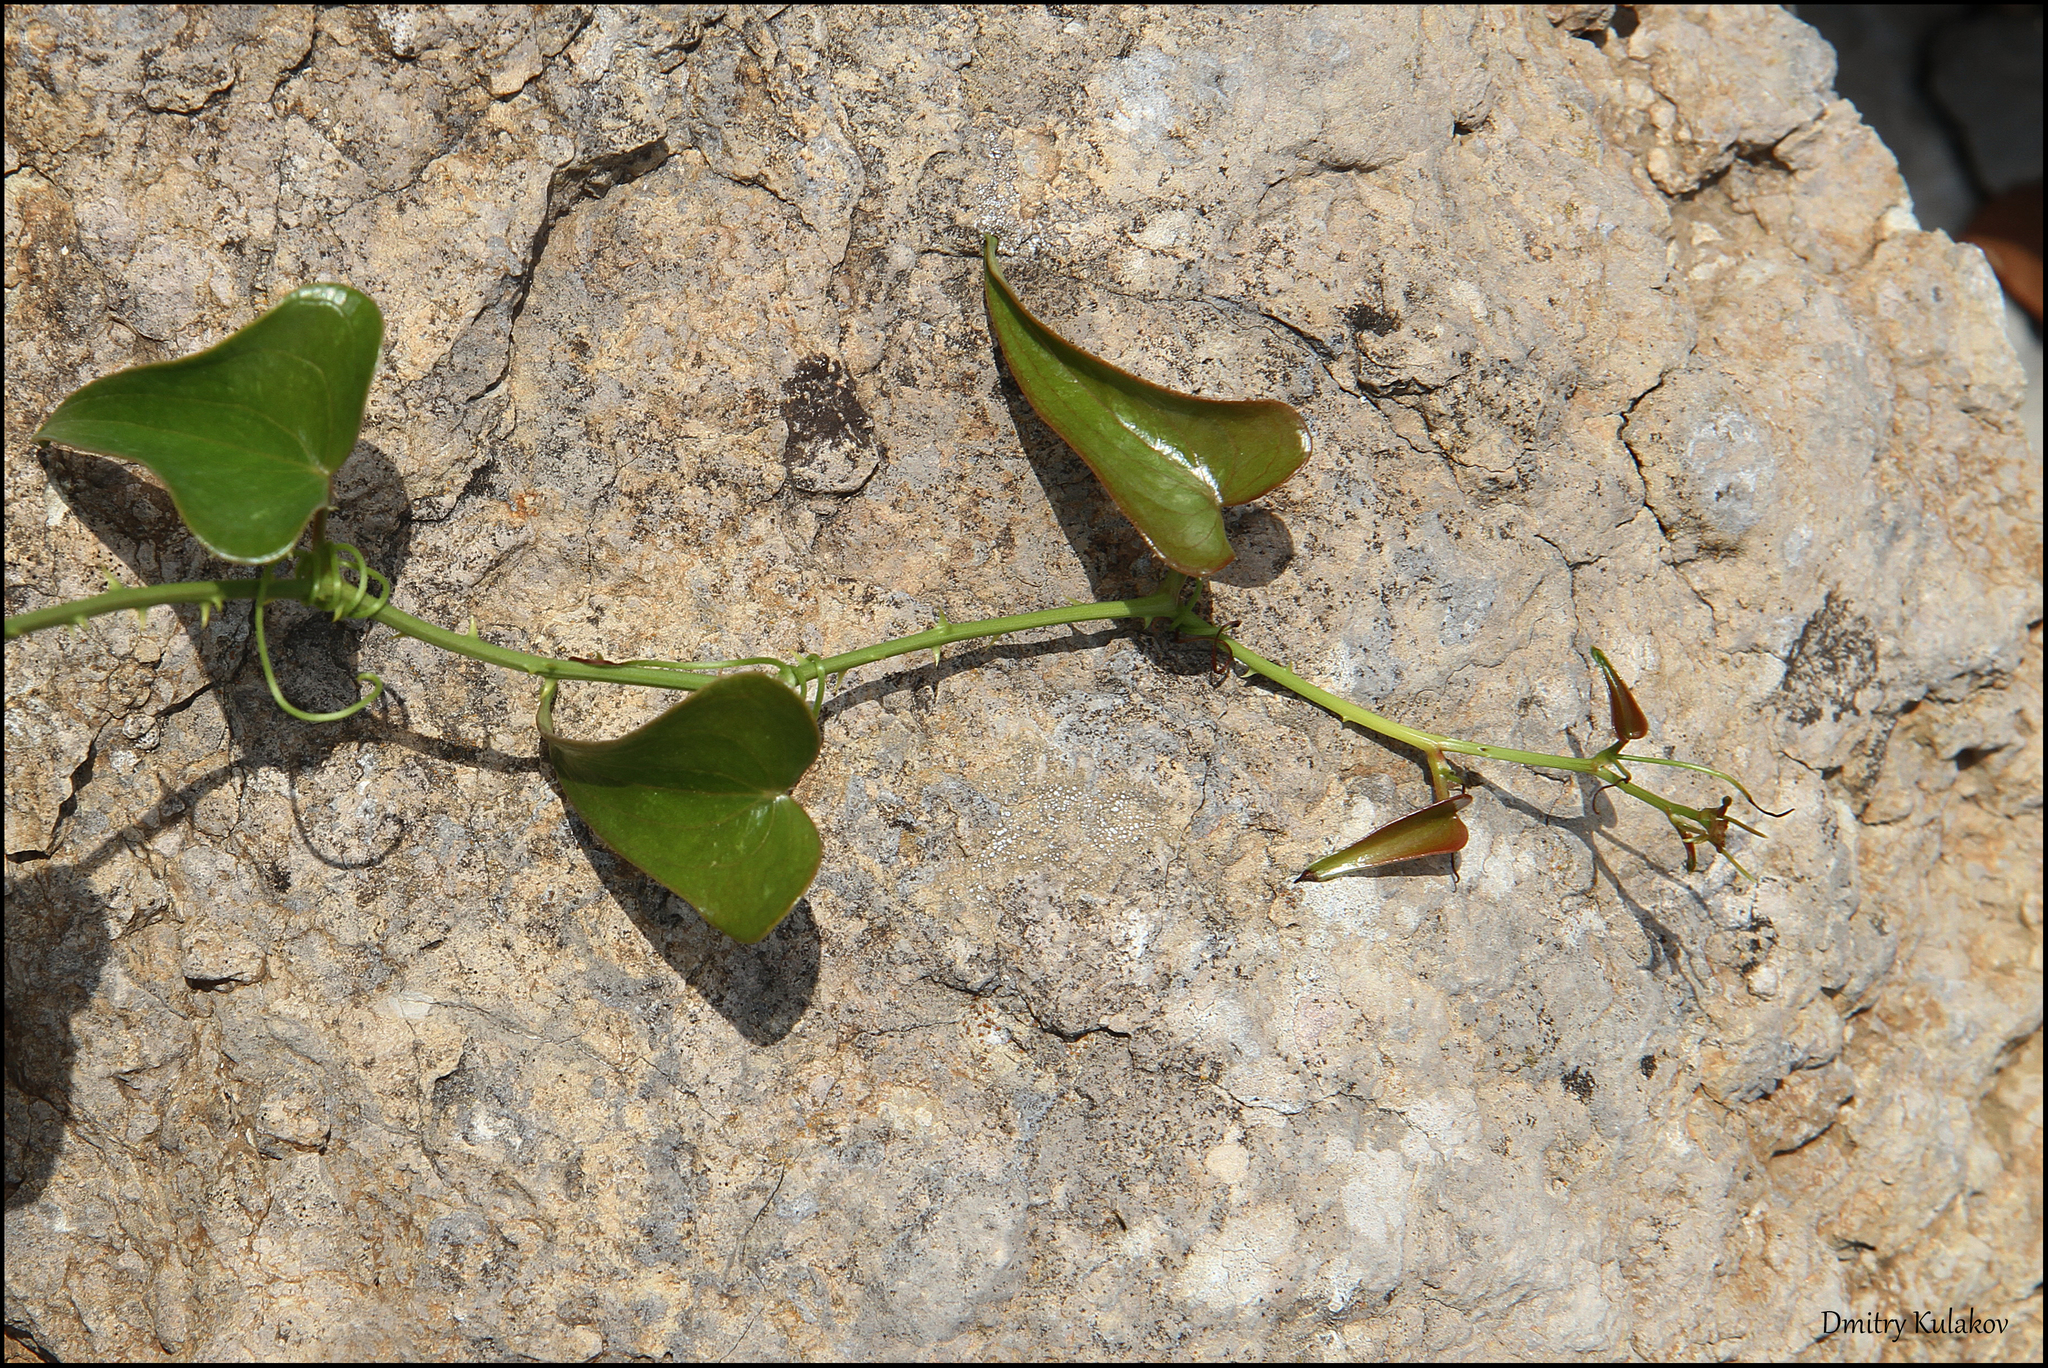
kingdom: Plantae
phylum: Tracheophyta
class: Liliopsida
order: Liliales
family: Smilacaceae
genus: Smilax
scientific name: Smilax aspera
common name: Common smilax
